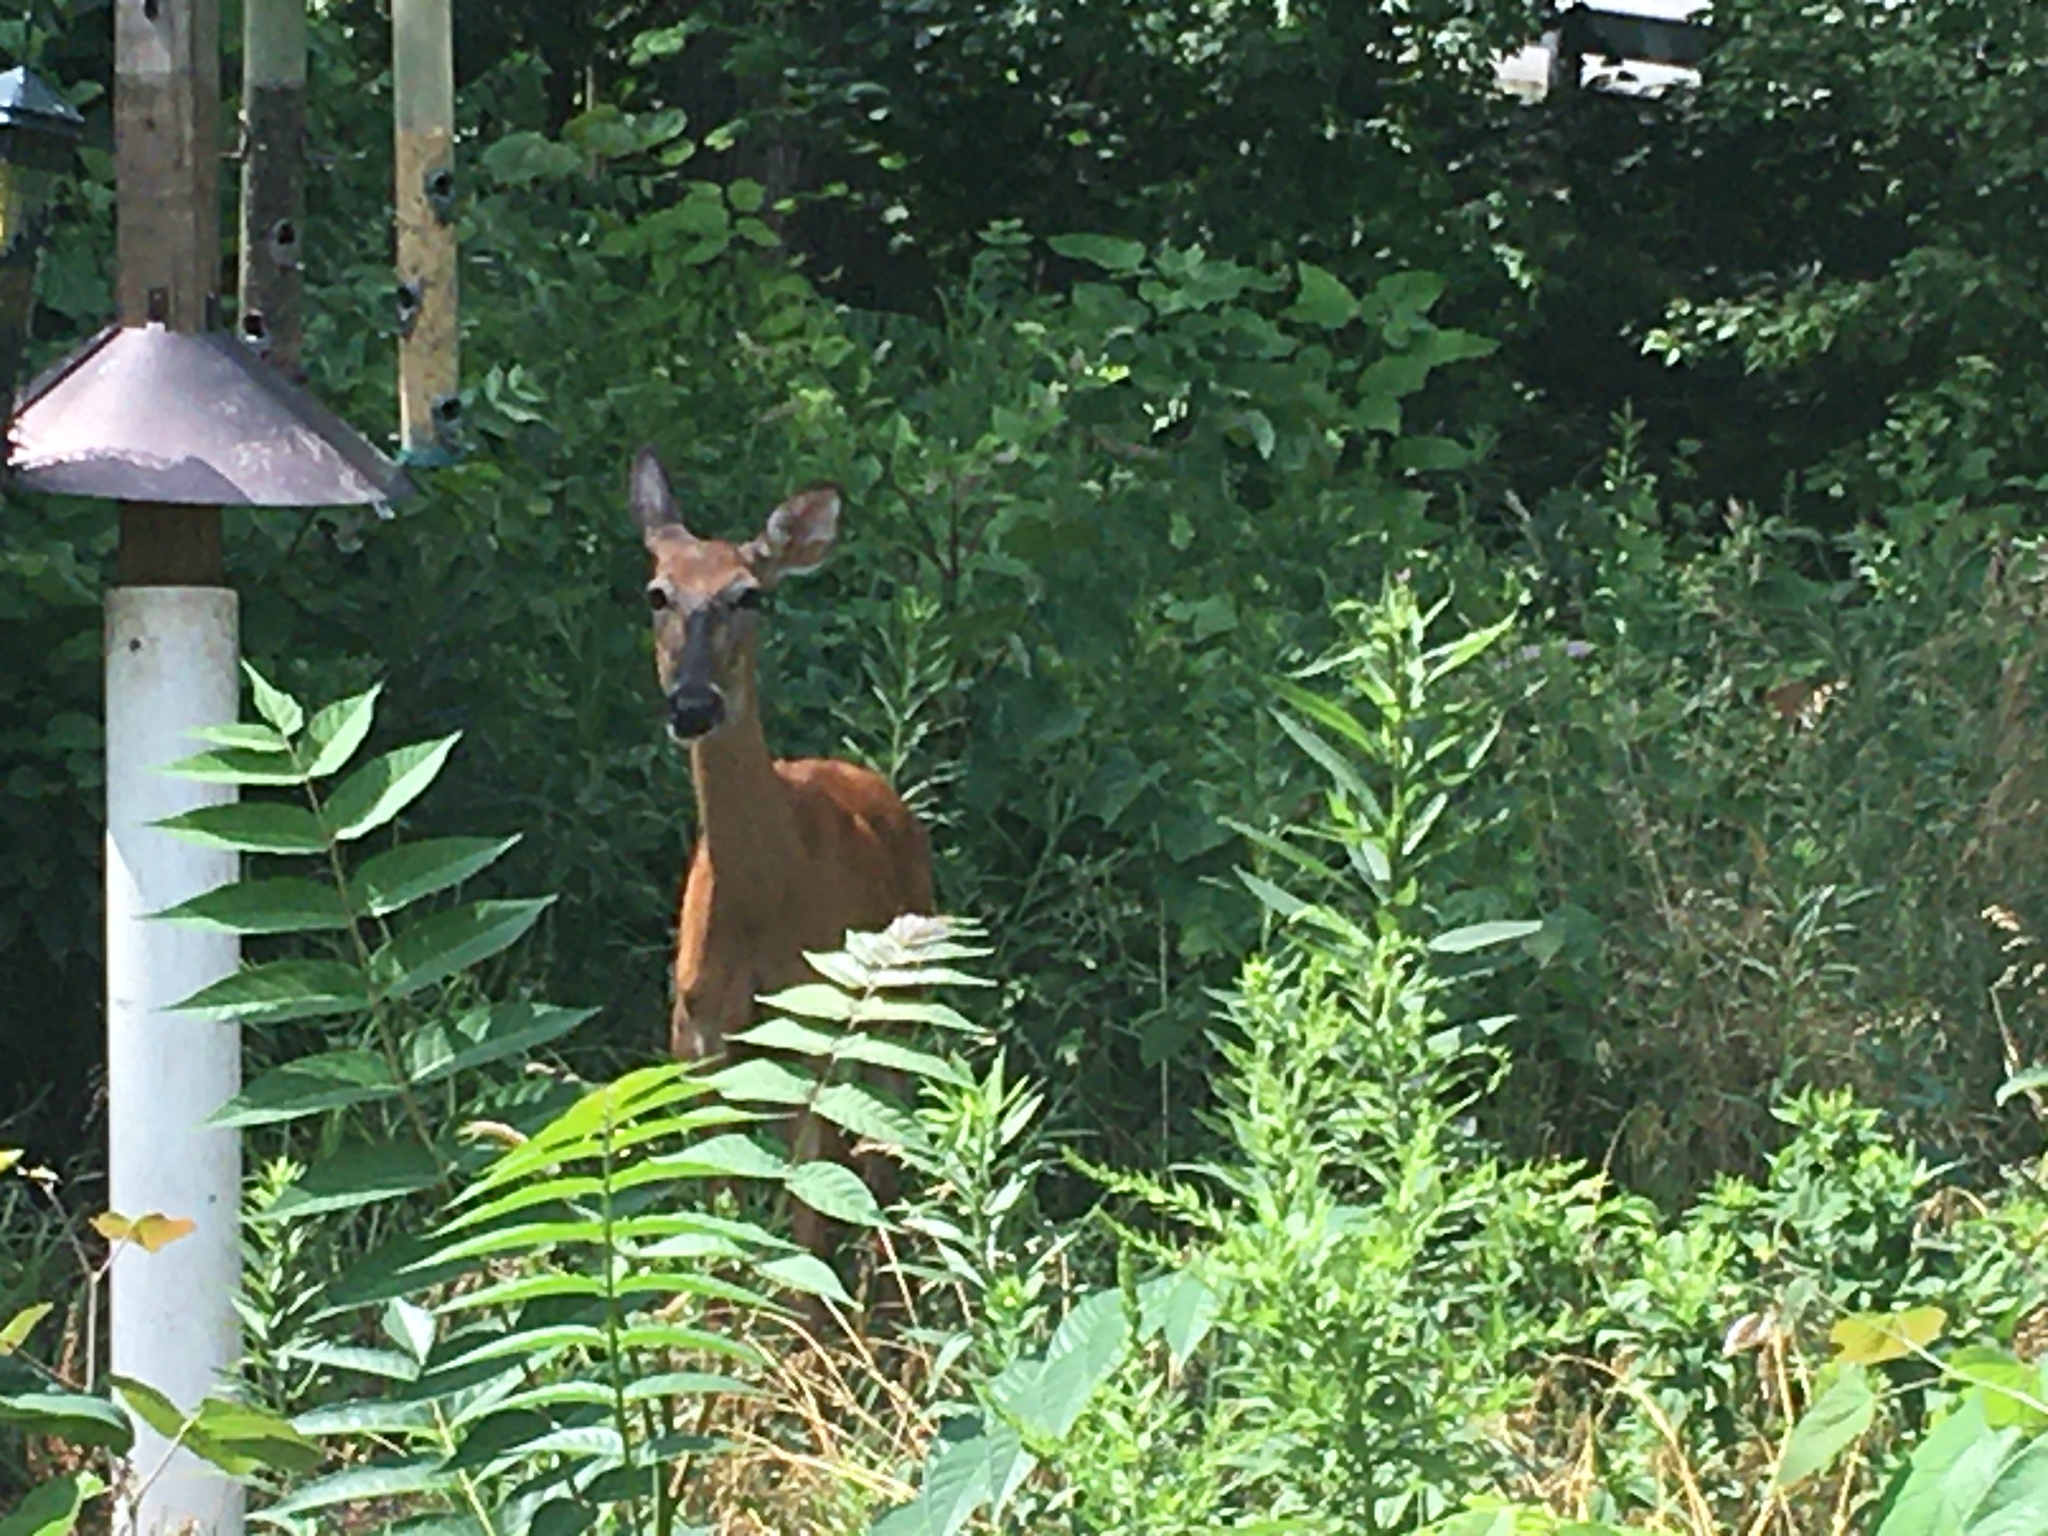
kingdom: Animalia
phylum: Chordata
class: Mammalia
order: Artiodactyla
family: Cervidae
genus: Odocoileus
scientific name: Odocoileus virginianus
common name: White-tailed deer
